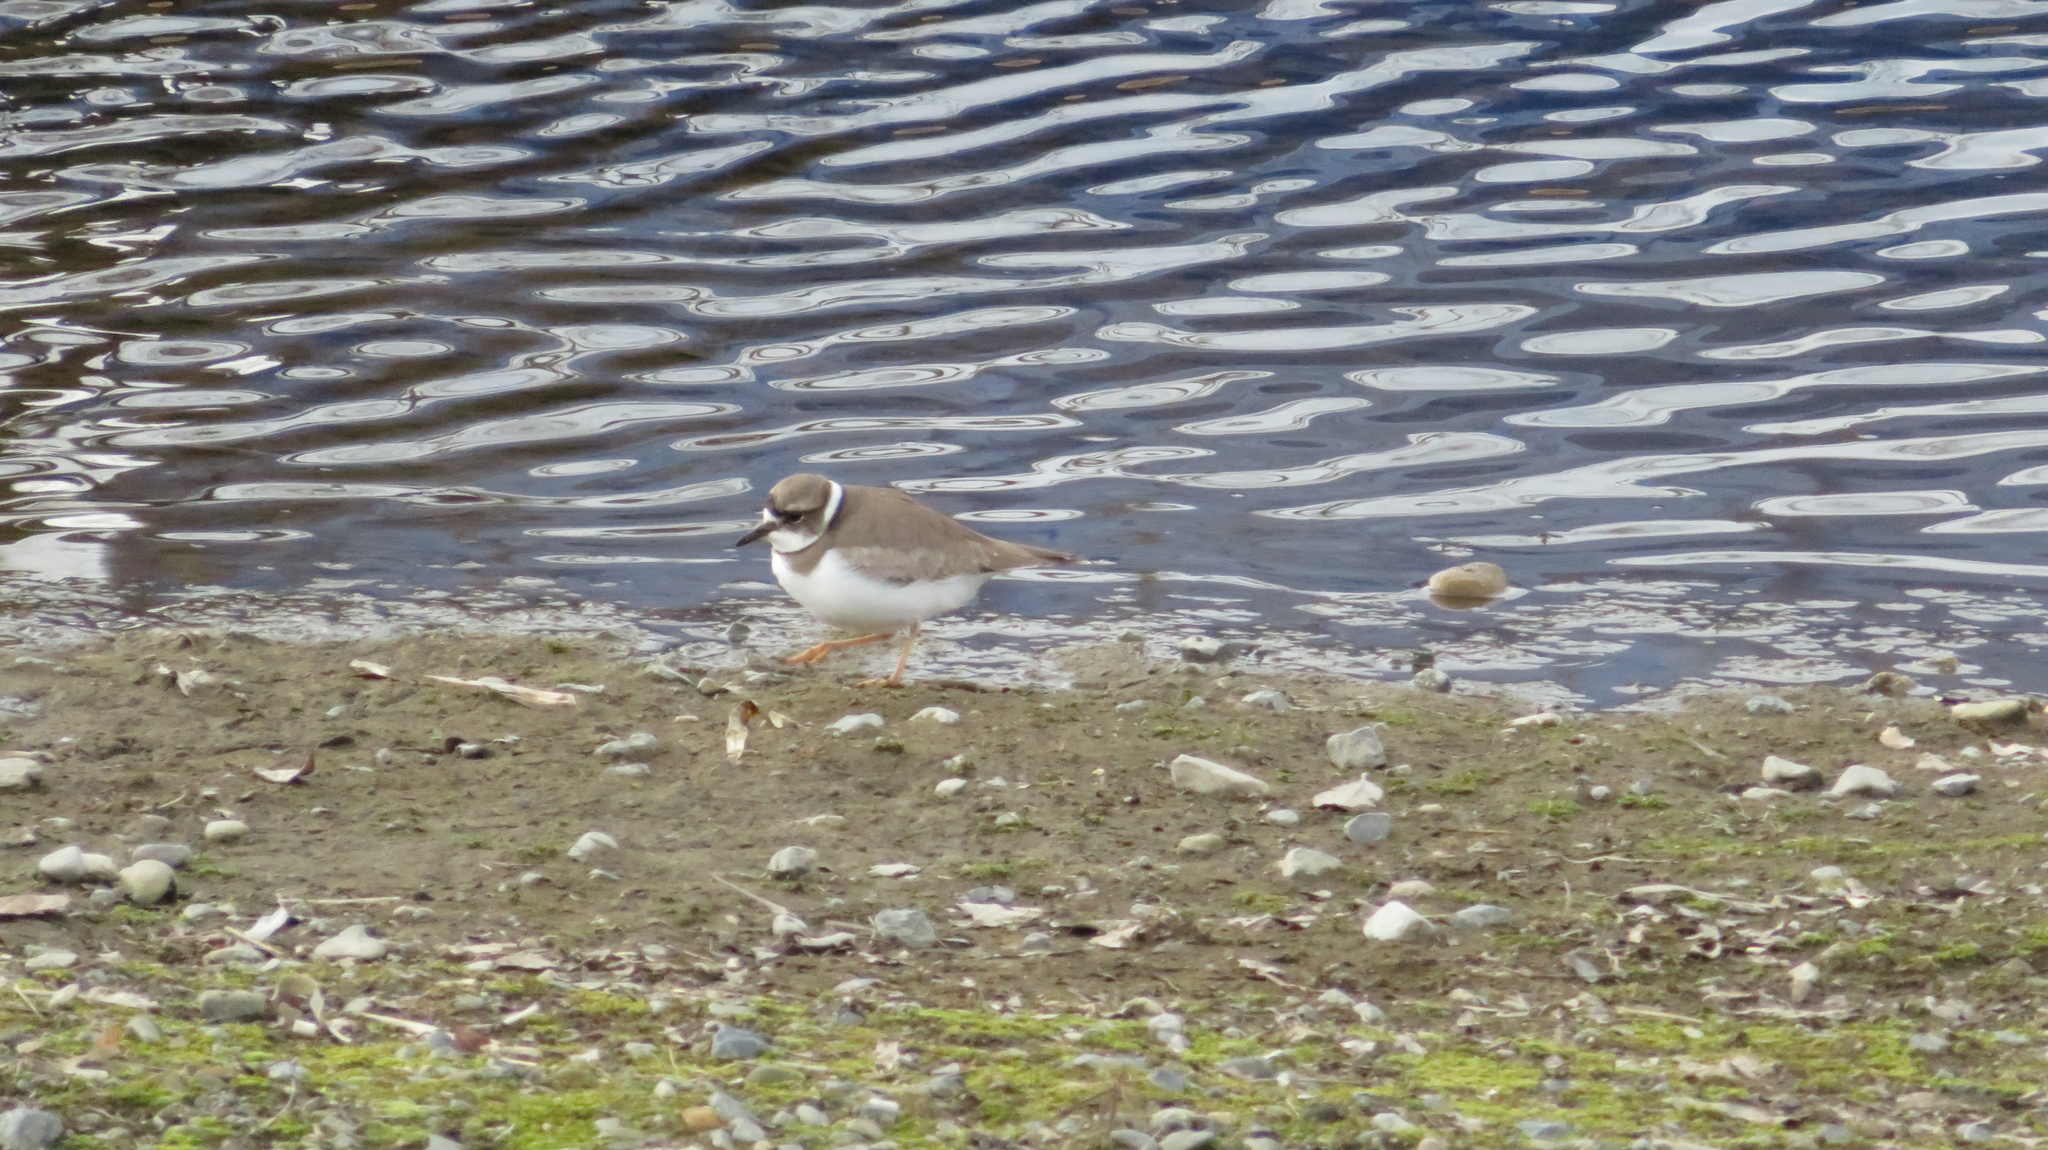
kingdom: Animalia
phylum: Chordata
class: Aves
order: Charadriiformes
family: Charadriidae
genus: Charadrius
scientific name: Charadrius placidus
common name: Long-billed plover
